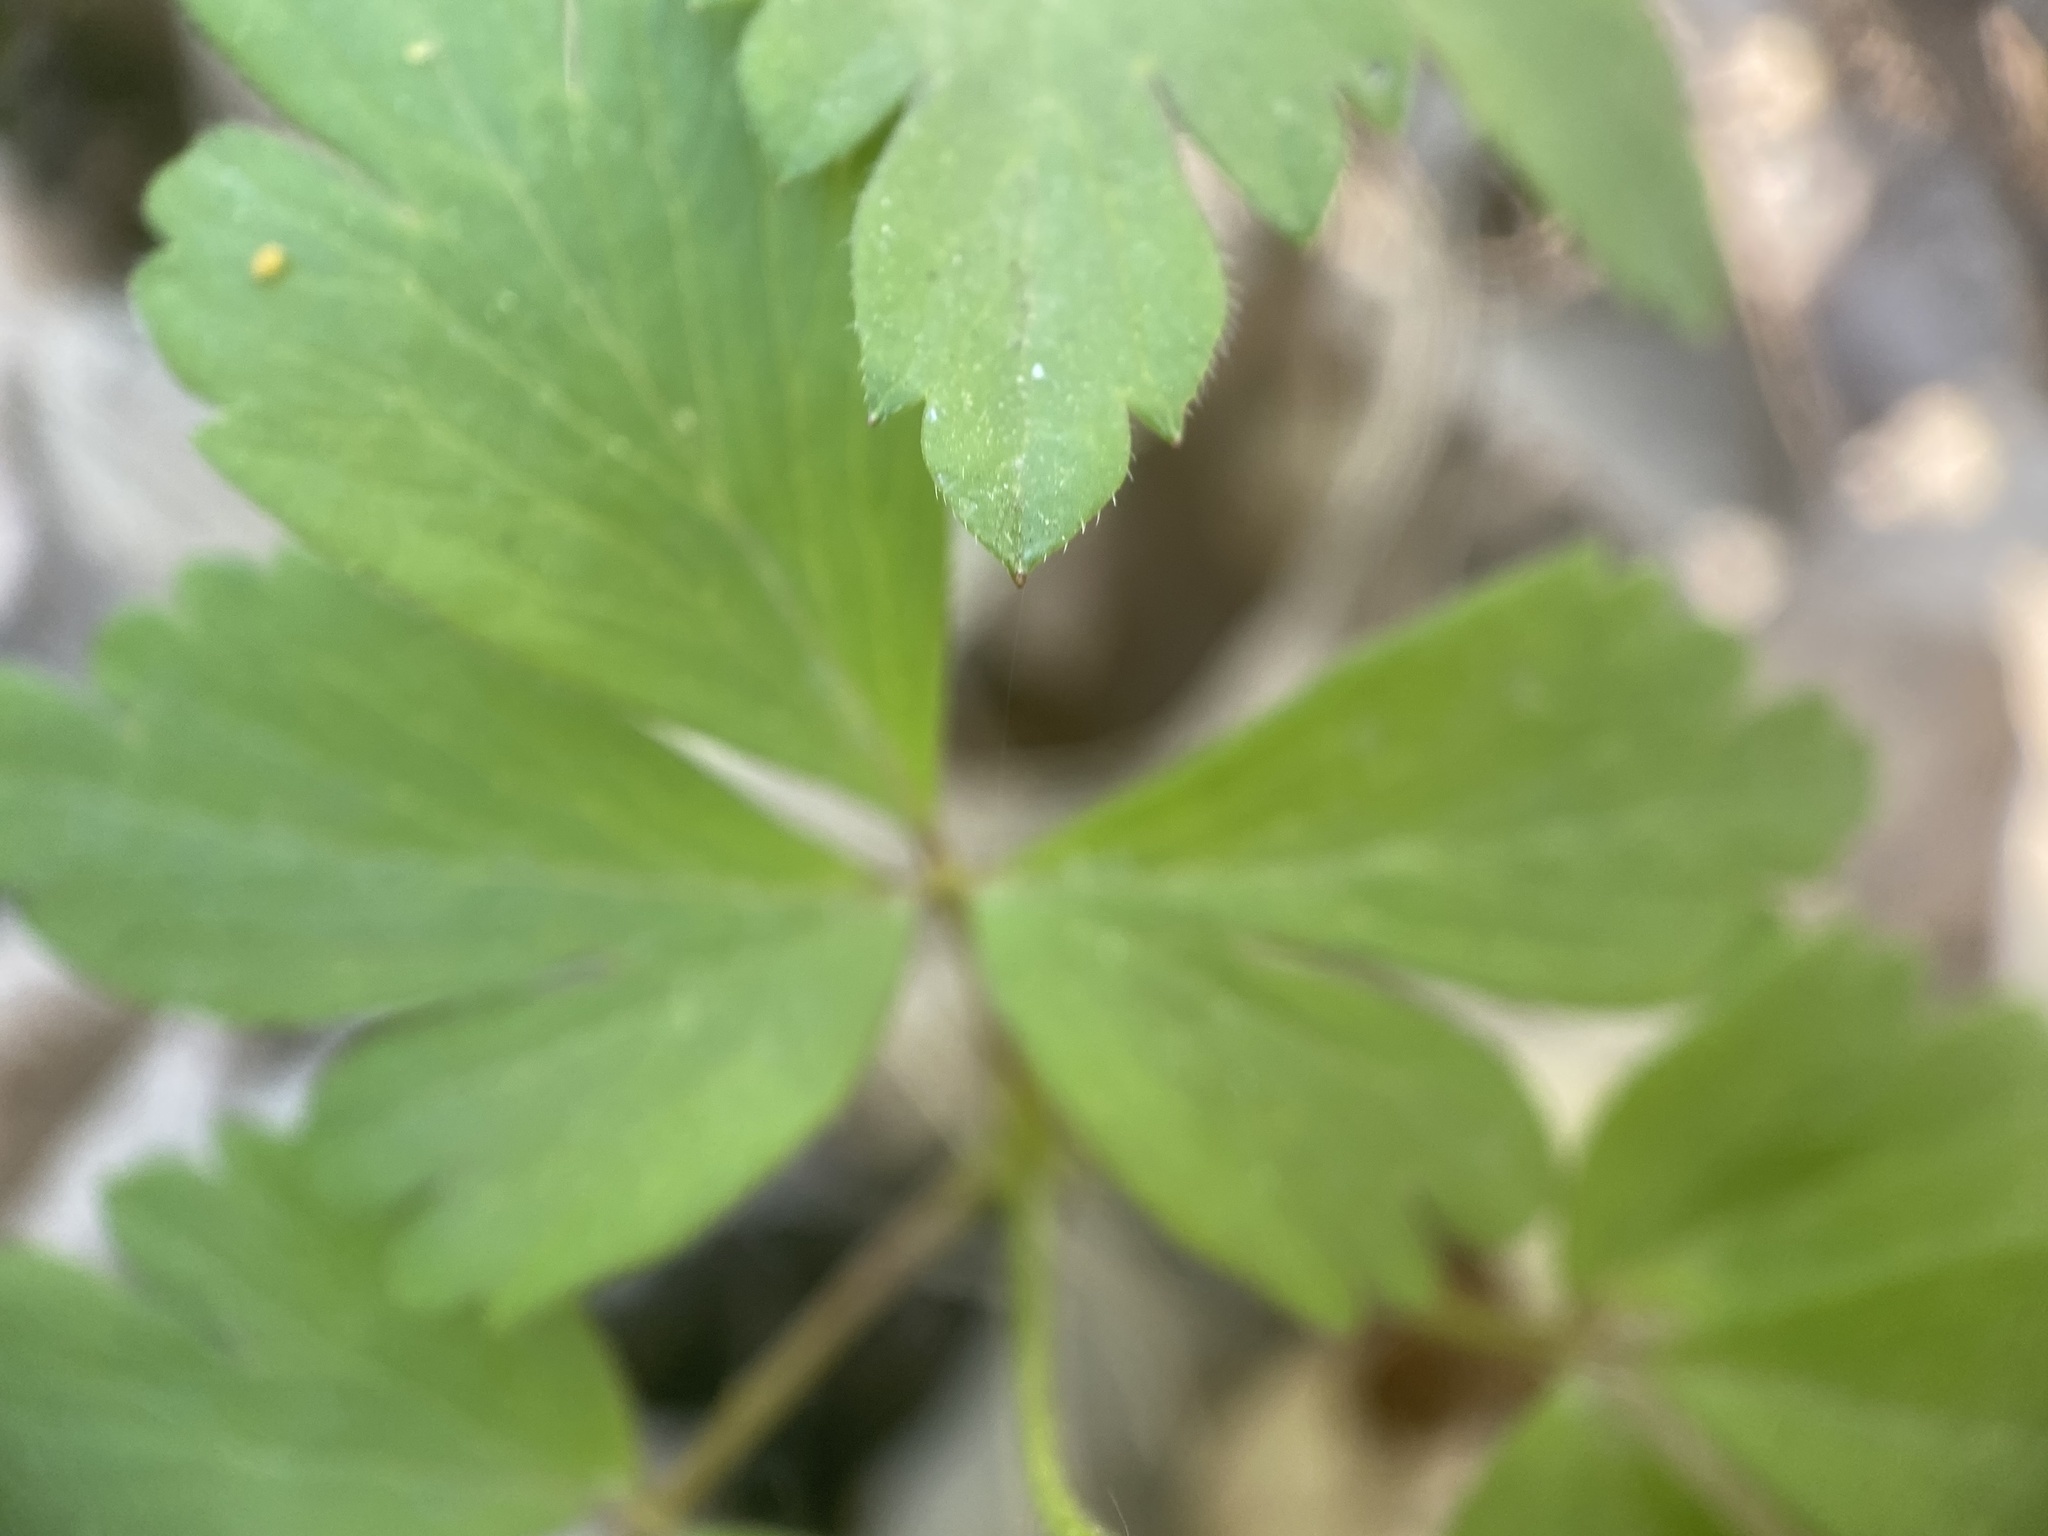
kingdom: Plantae
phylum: Tracheophyta
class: Magnoliopsida
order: Ranunculales
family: Ranunculaceae
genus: Anemone
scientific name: Anemone quinquefolia
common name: Wood anemone
